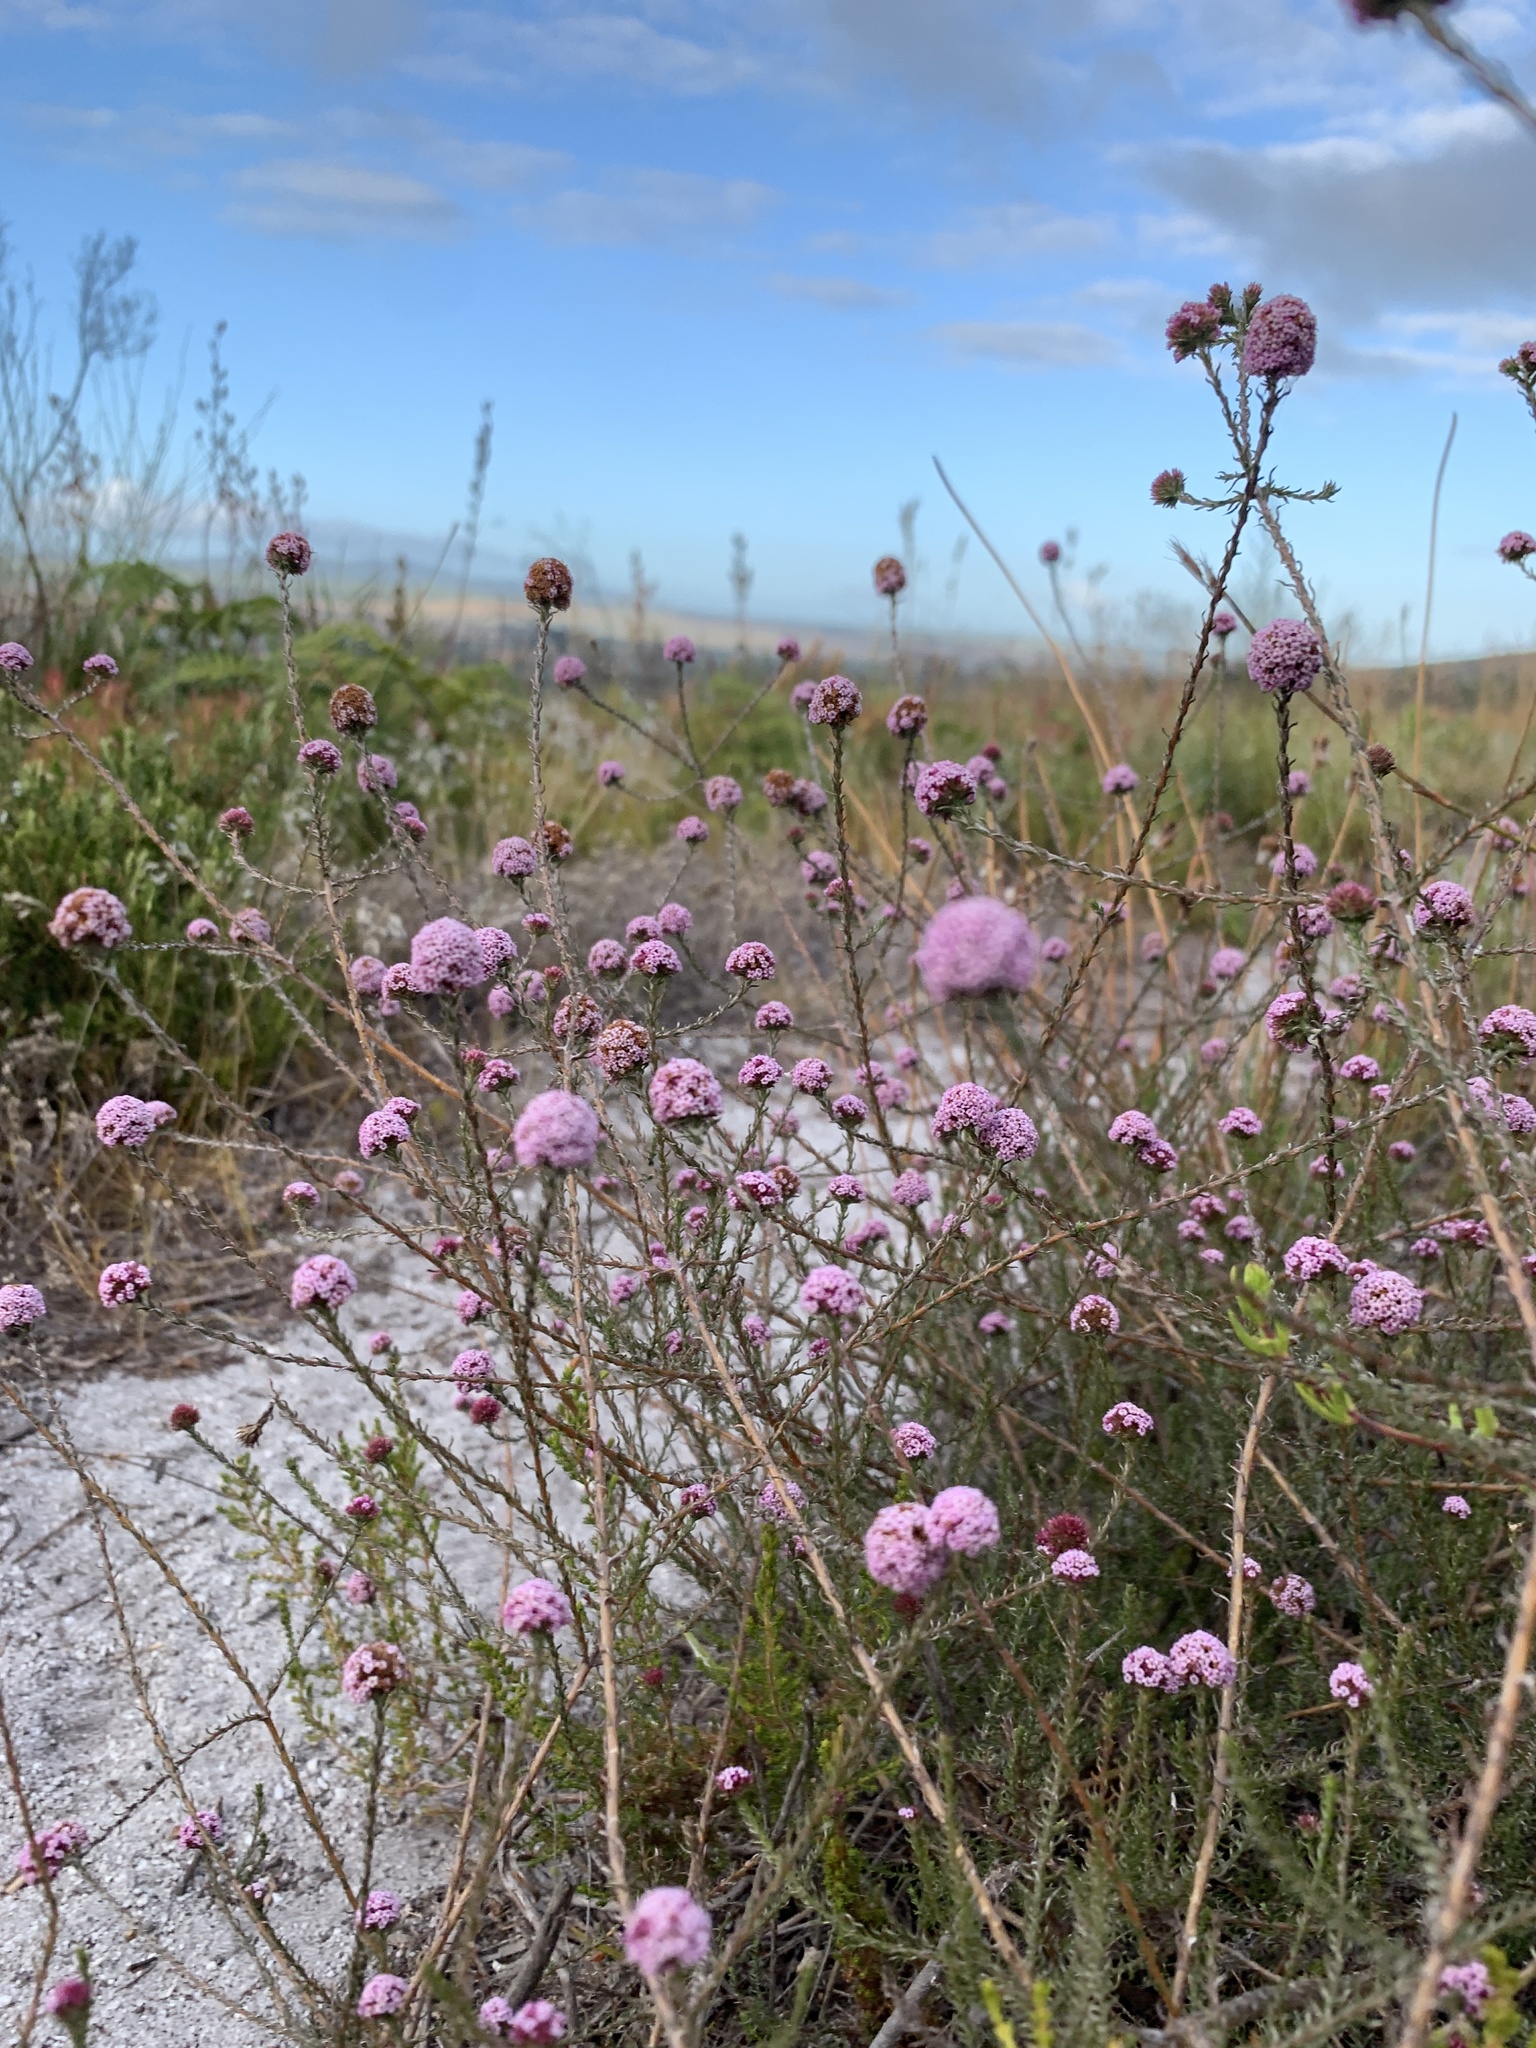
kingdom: Plantae
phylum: Tracheophyta
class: Magnoliopsida
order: Asterales
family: Asteraceae
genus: Stoebe
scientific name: Stoebe capitata
